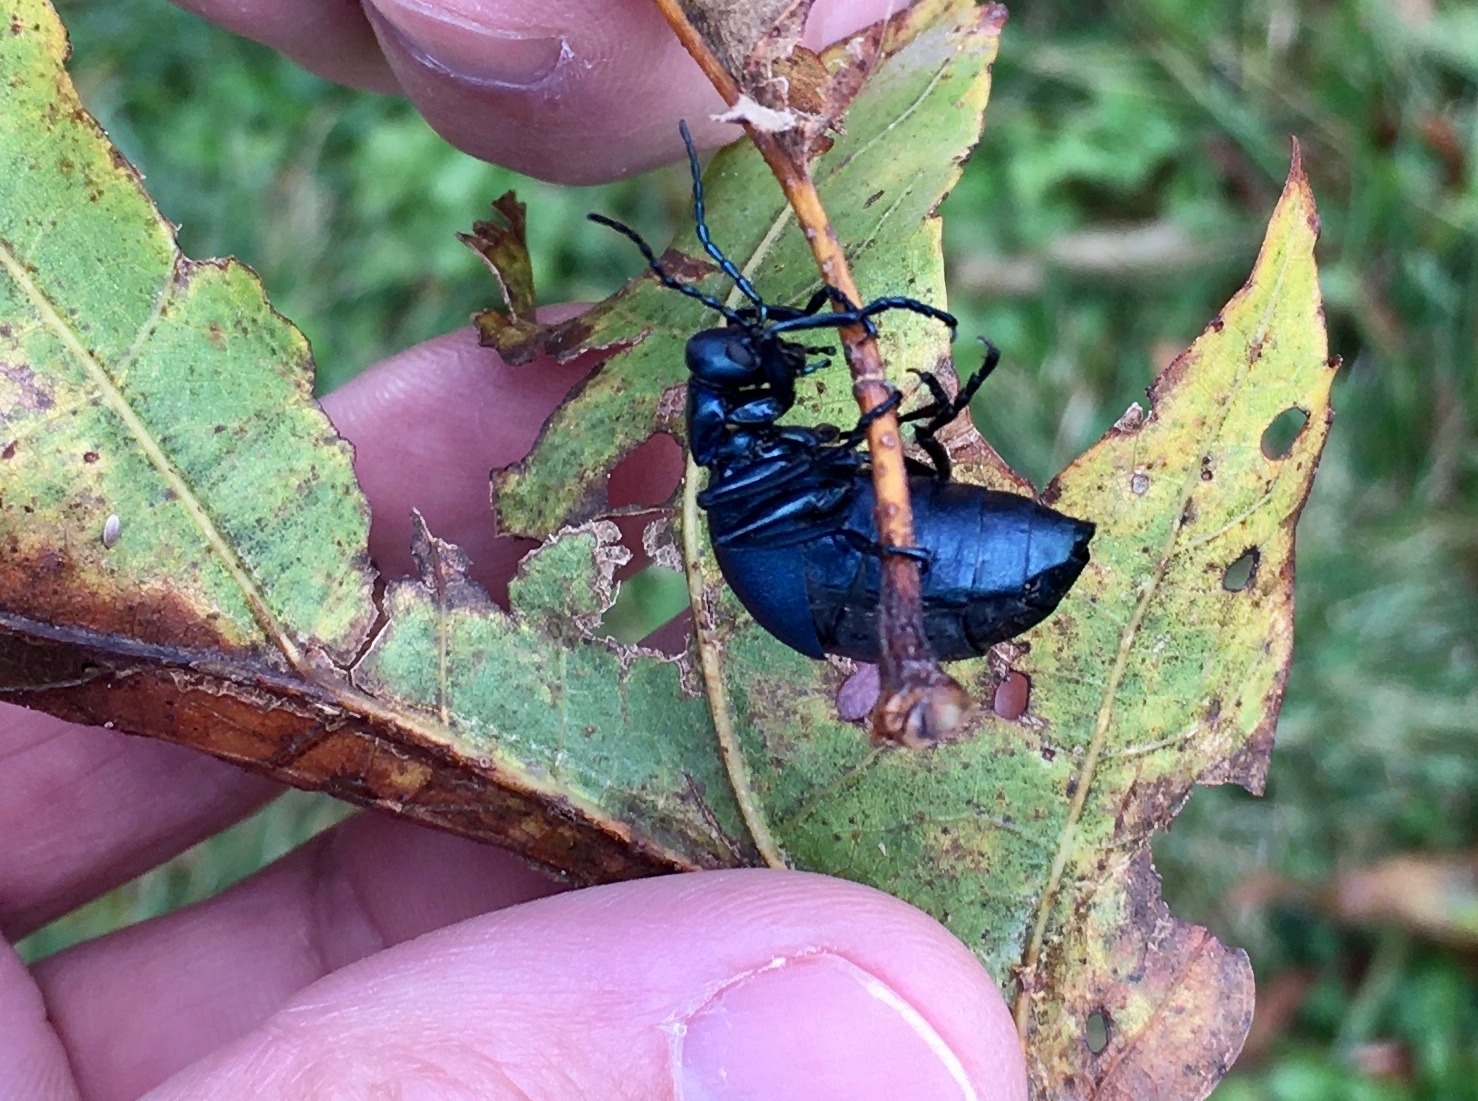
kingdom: Animalia
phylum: Arthropoda
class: Insecta
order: Coleoptera
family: Meloidae
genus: Meloe
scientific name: Meloe americanus
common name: Buttercup oil beetle
